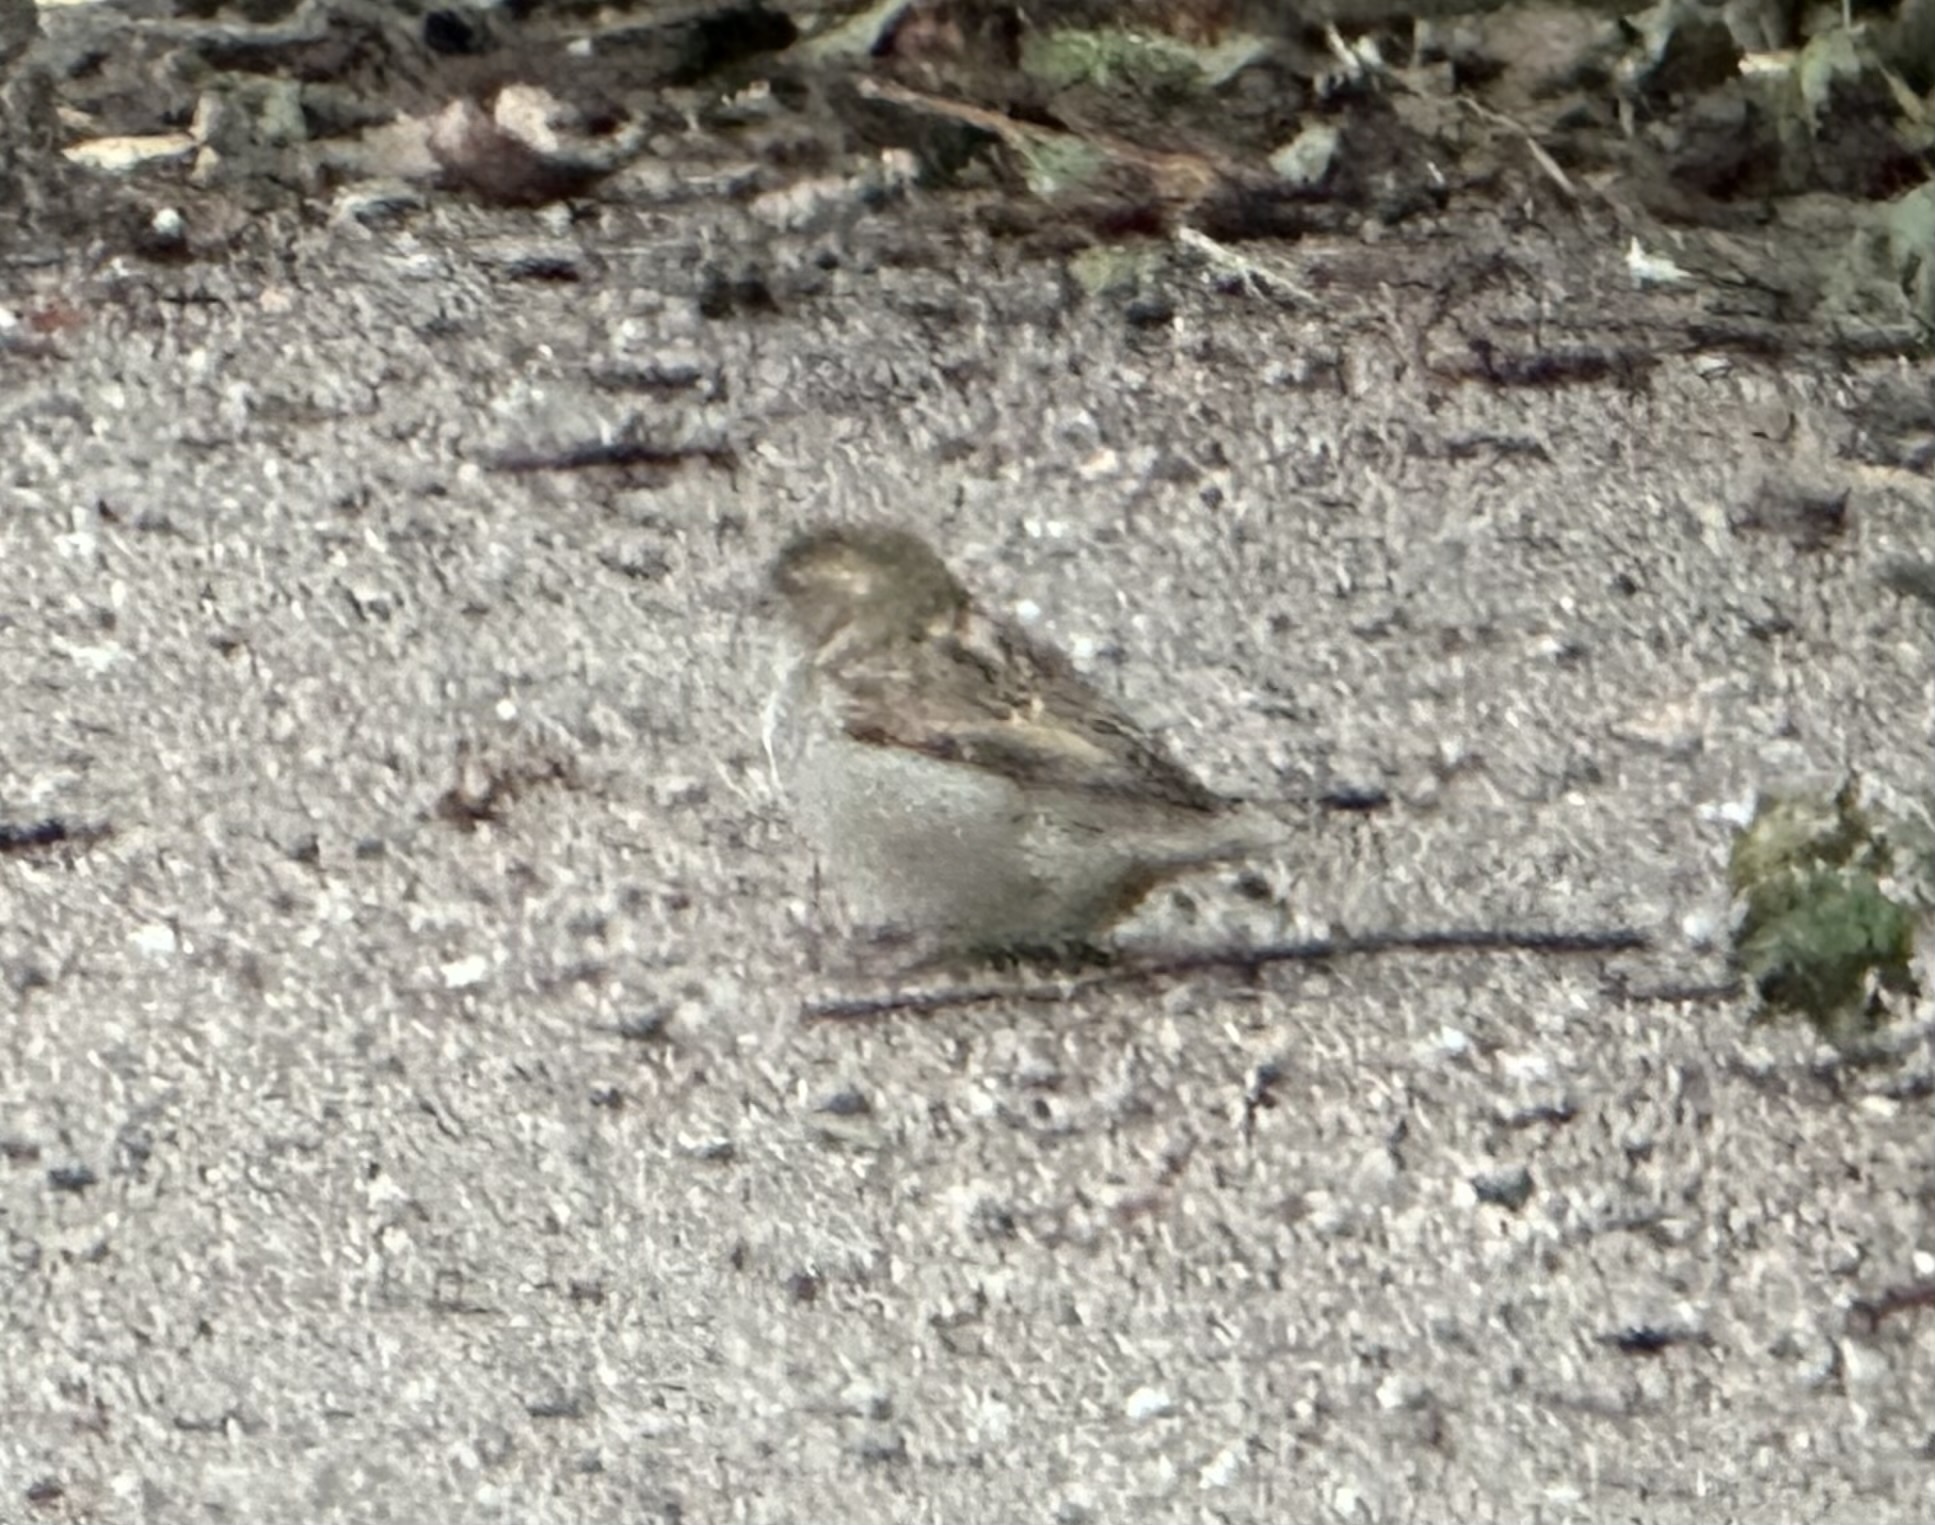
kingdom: Animalia
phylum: Chordata
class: Aves
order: Passeriformes
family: Passeridae
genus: Passer
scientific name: Passer domesticus
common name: House sparrow
